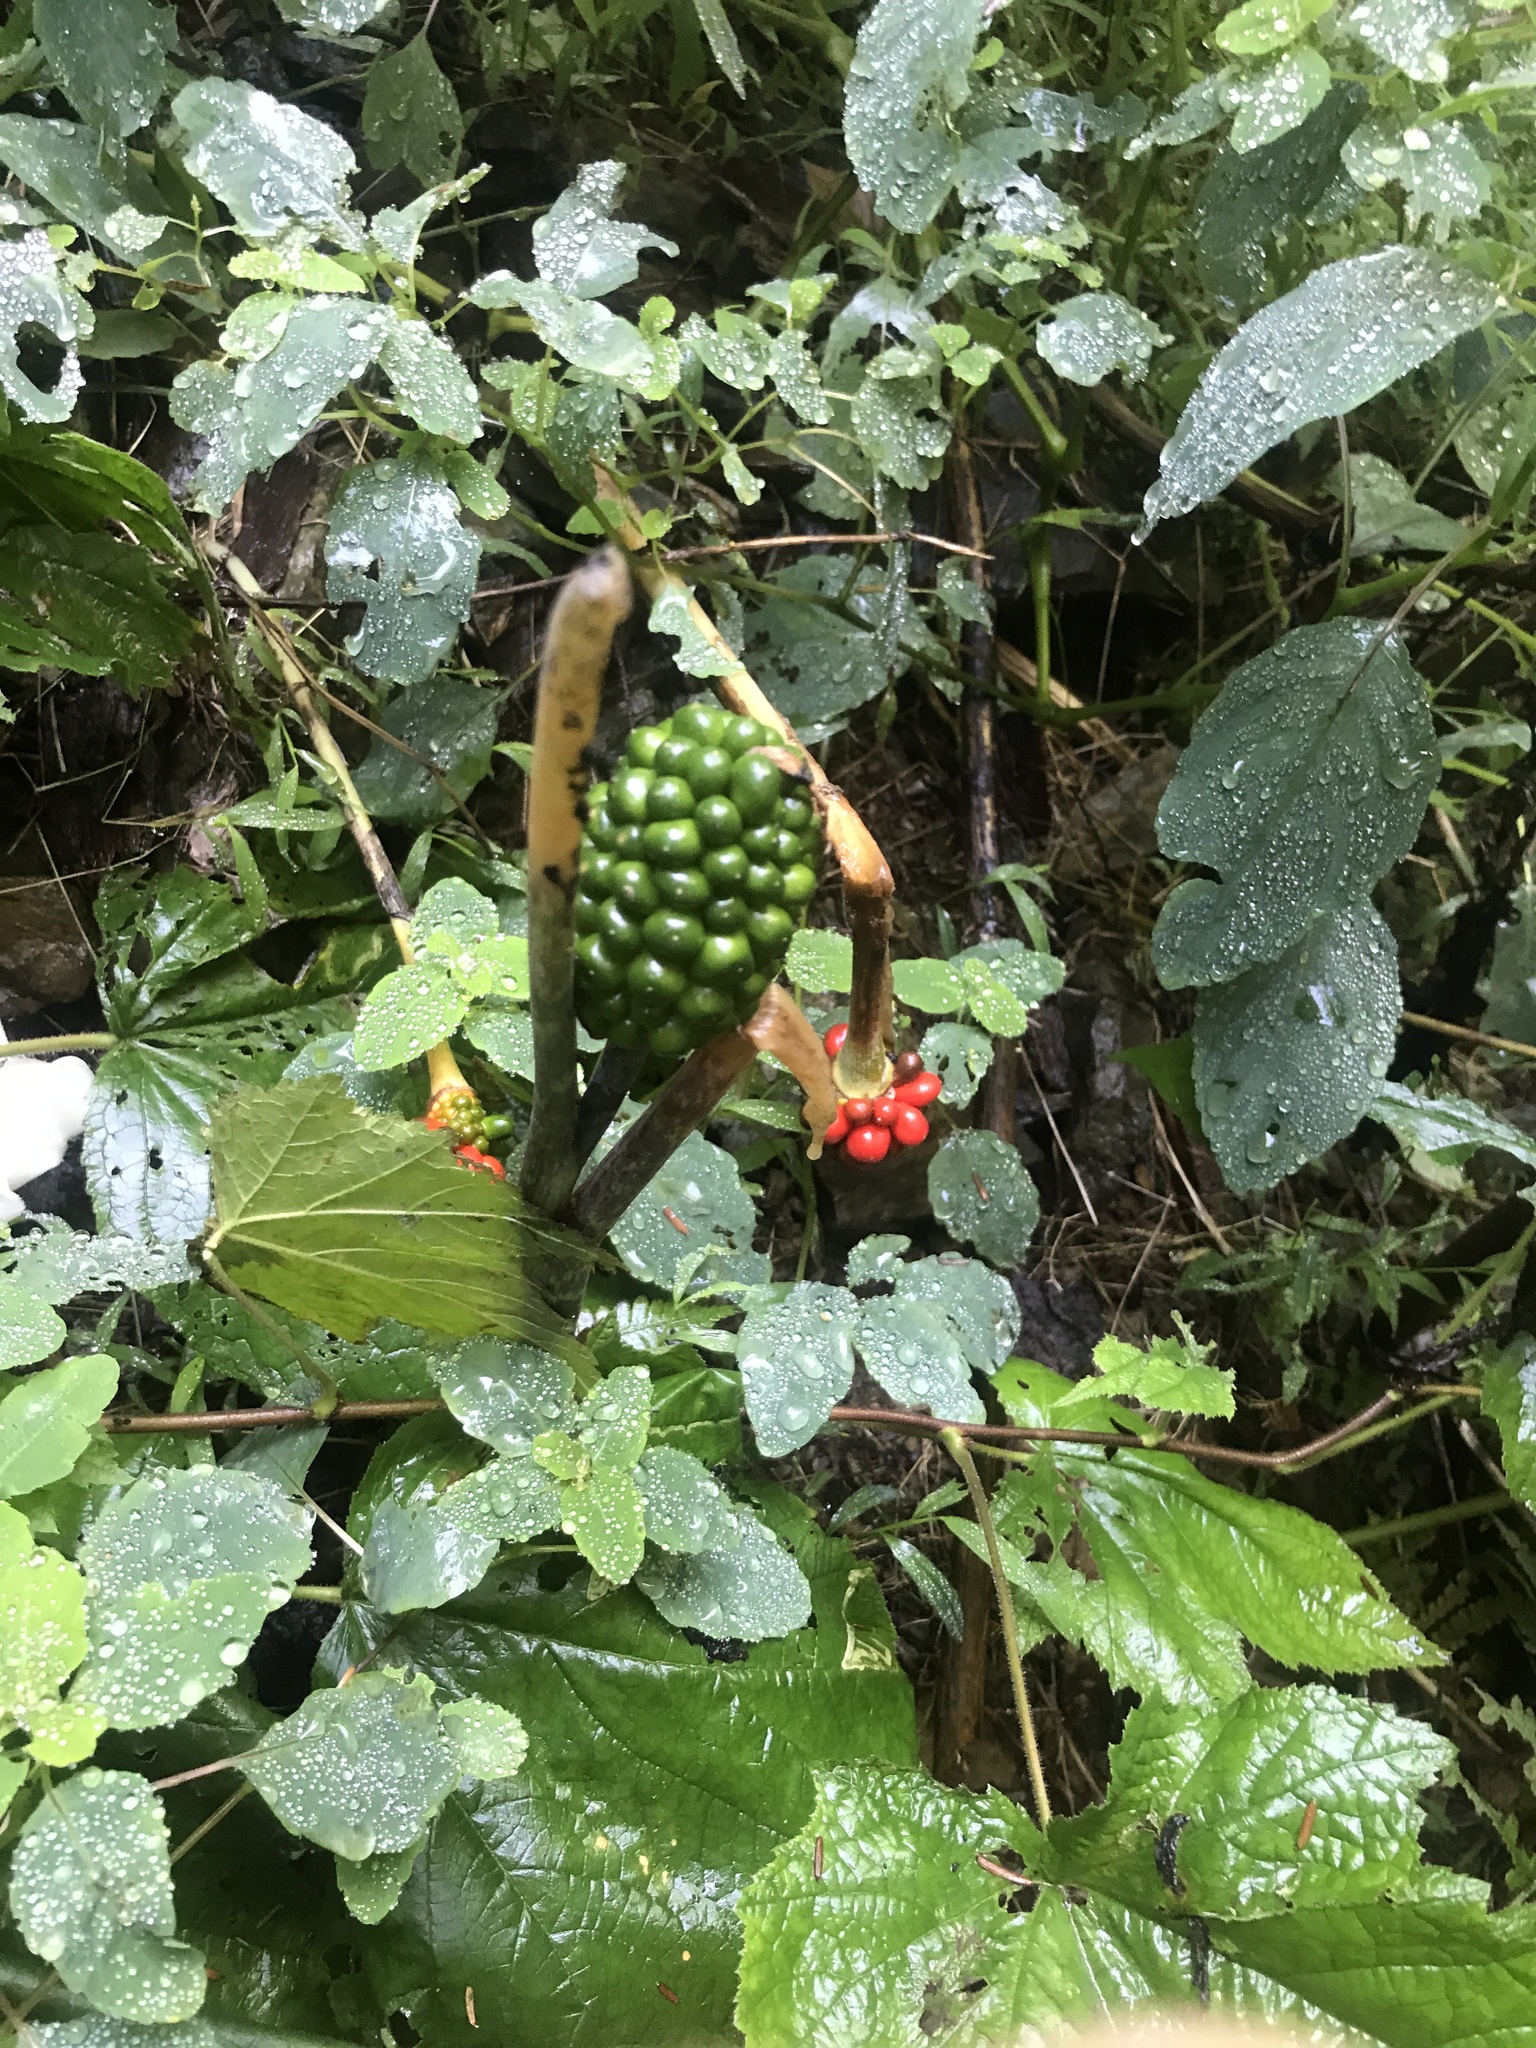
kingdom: Plantae
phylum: Tracheophyta
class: Liliopsida
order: Alismatales
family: Araceae
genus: Arisaema
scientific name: Arisaema triphyllum
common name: Jack-in-the-pulpit
